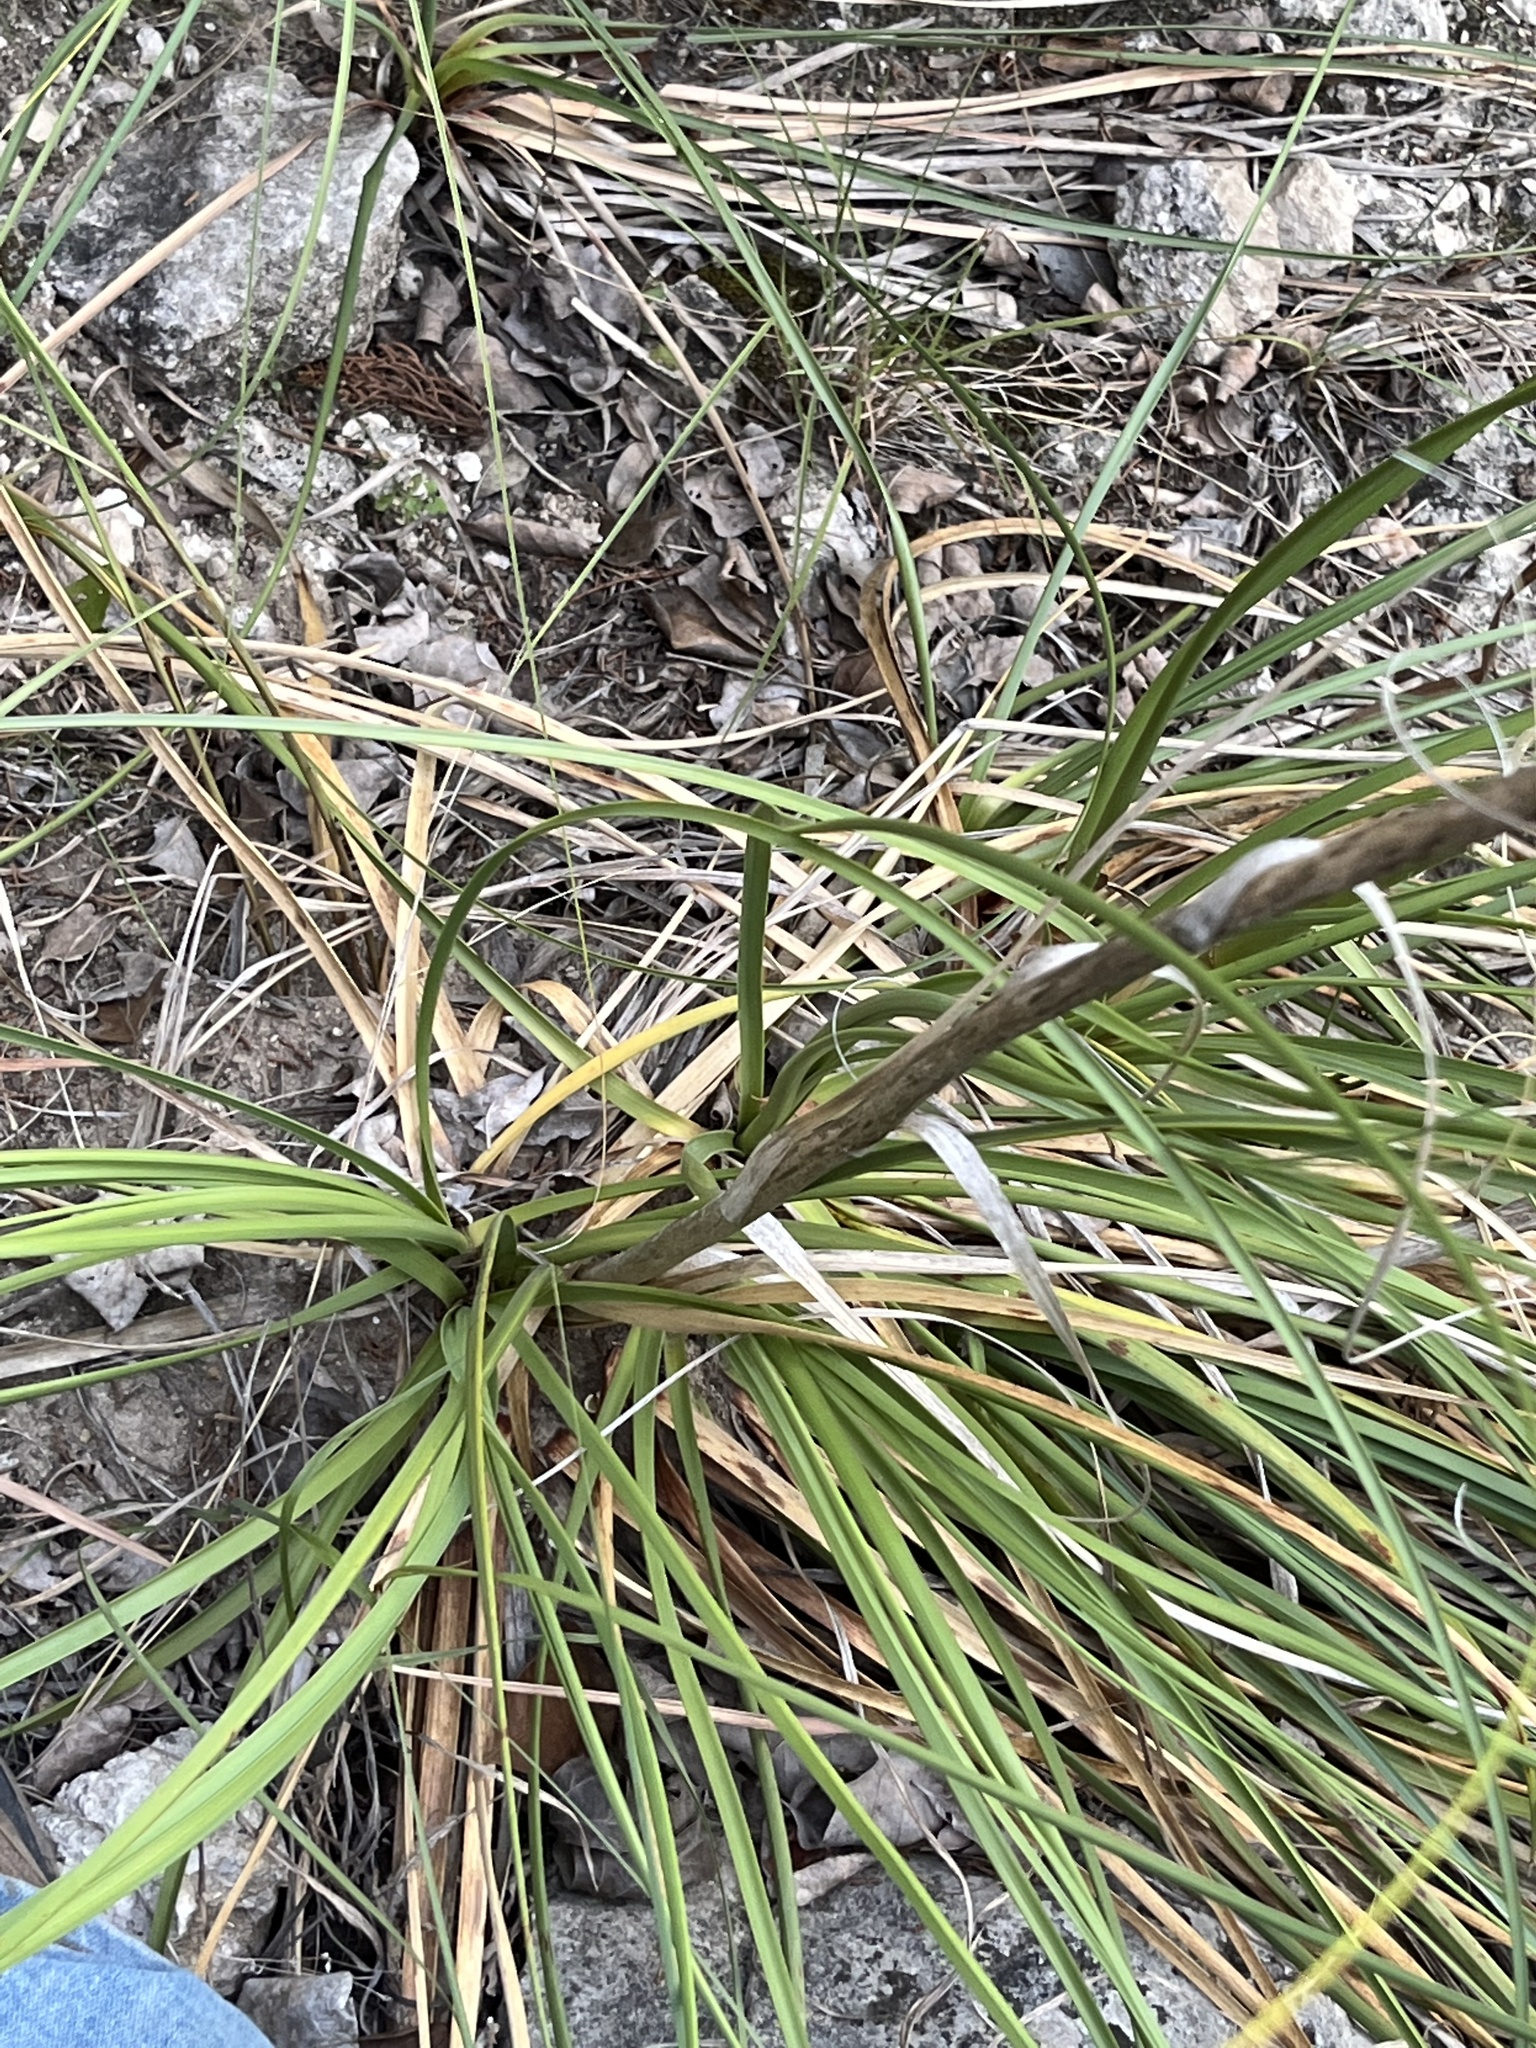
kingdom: Plantae
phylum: Tracheophyta
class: Liliopsida
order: Asparagales
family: Asparagaceae
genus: Nolina
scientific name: Nolina lindheimeriana
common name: Lindheimer's bear-grass
